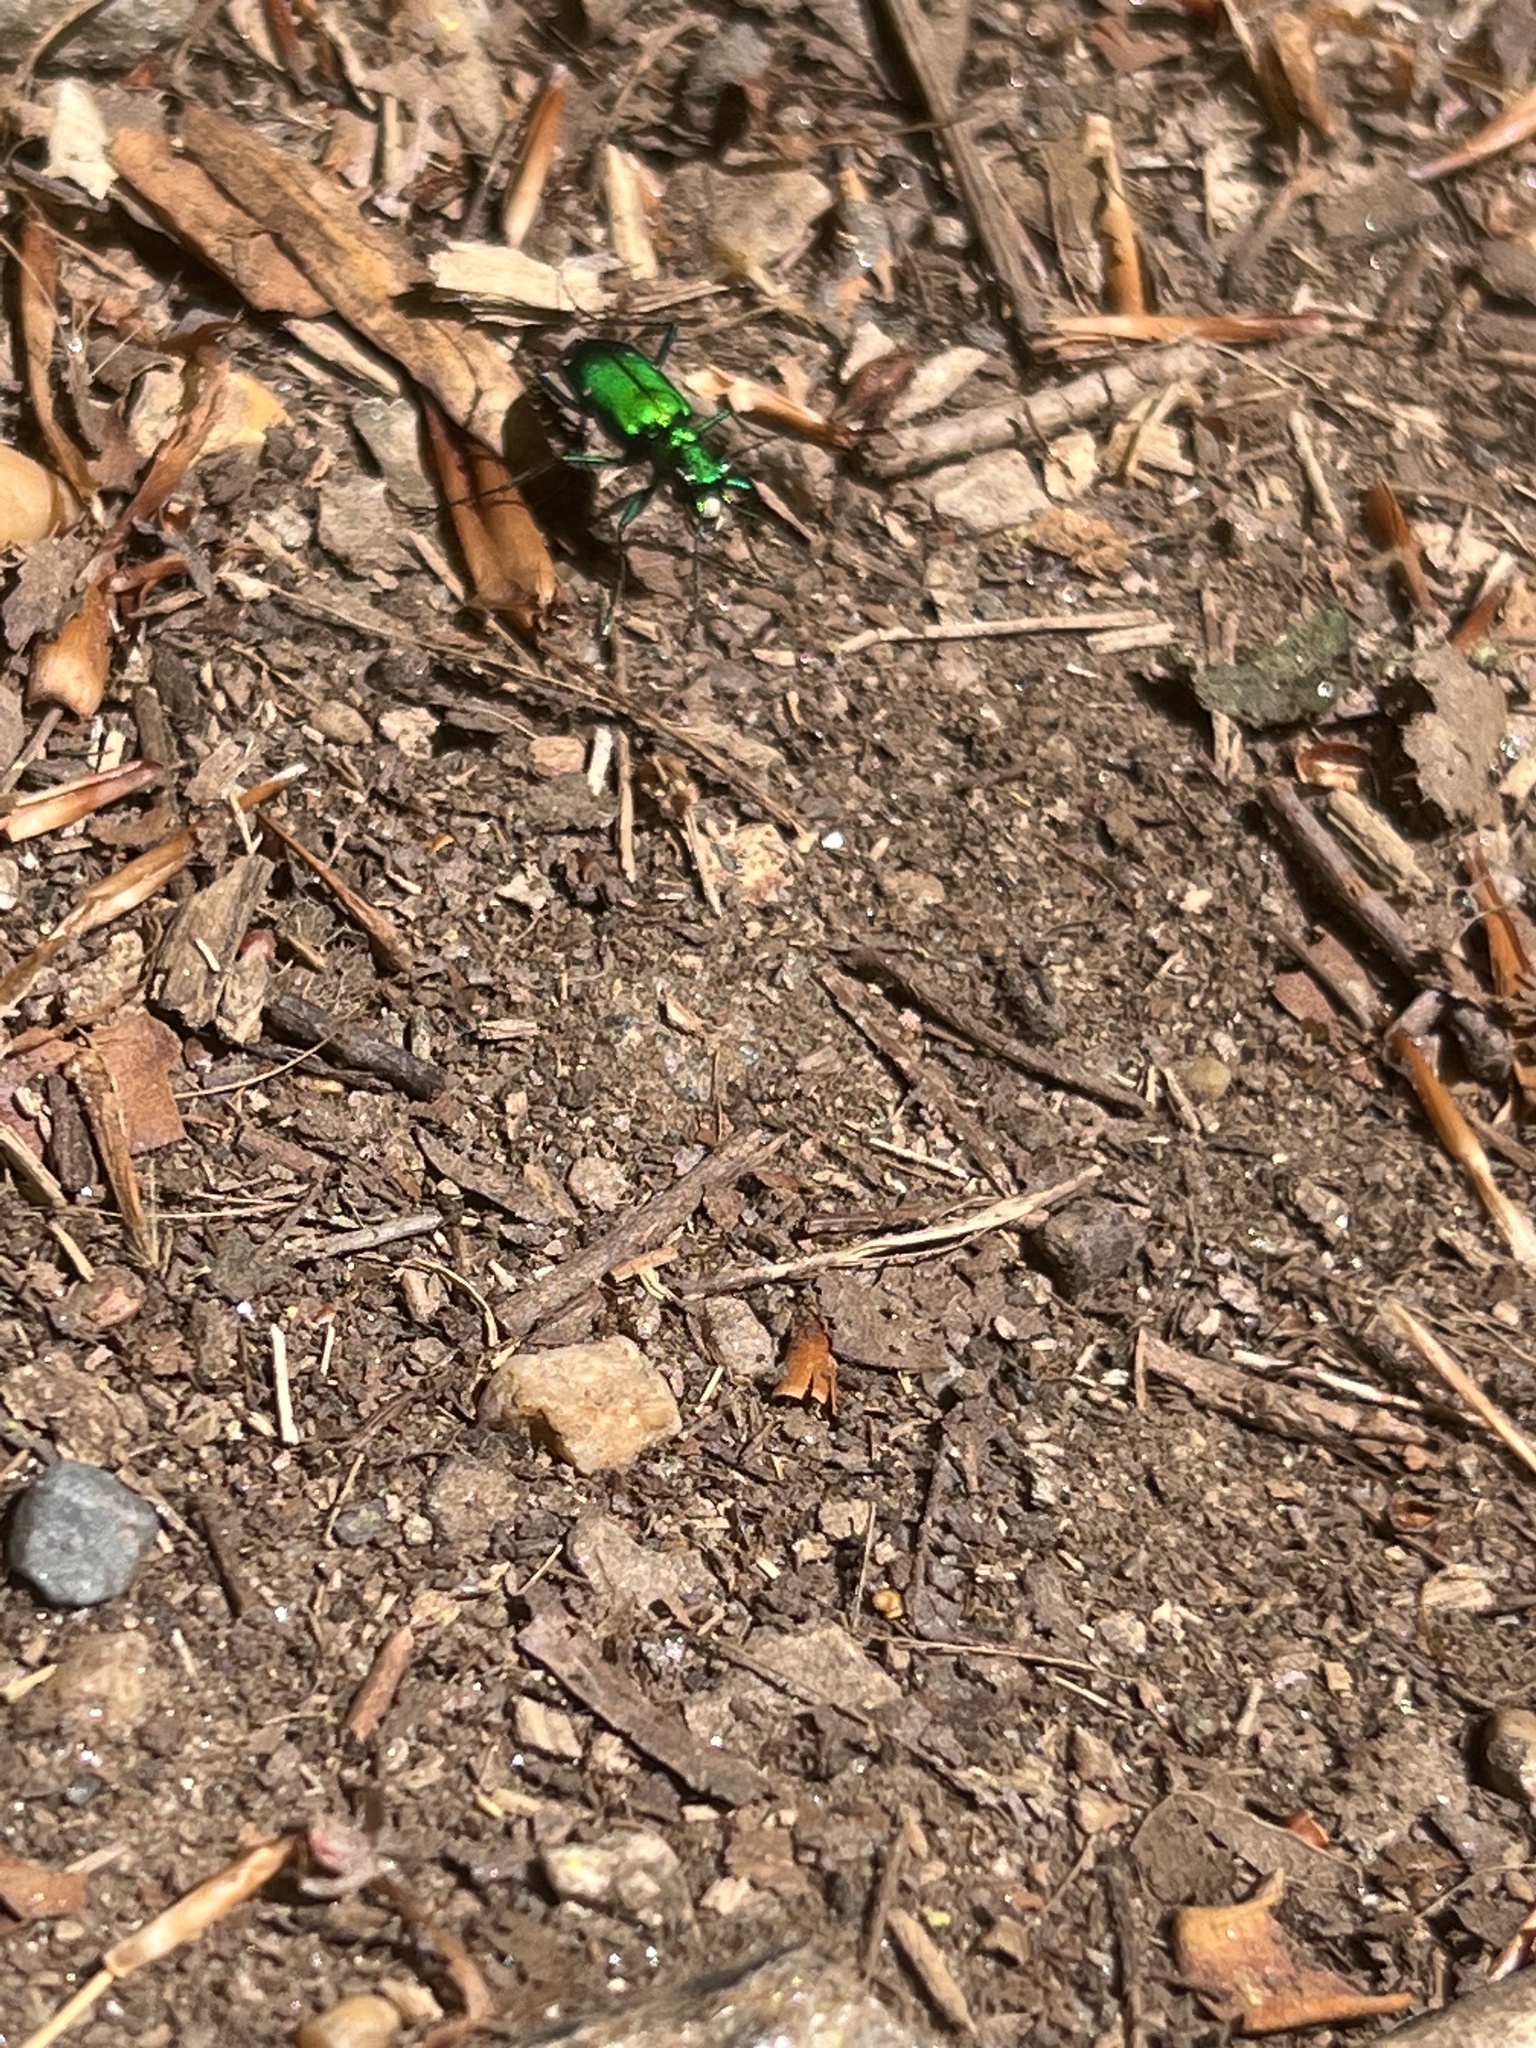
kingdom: Animalia
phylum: Arthropoda
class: Insecta
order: Coleoptera
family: Carabidae
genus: Cicindela
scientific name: Cicindela sexguttata
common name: Six-spotted tiger beetle
